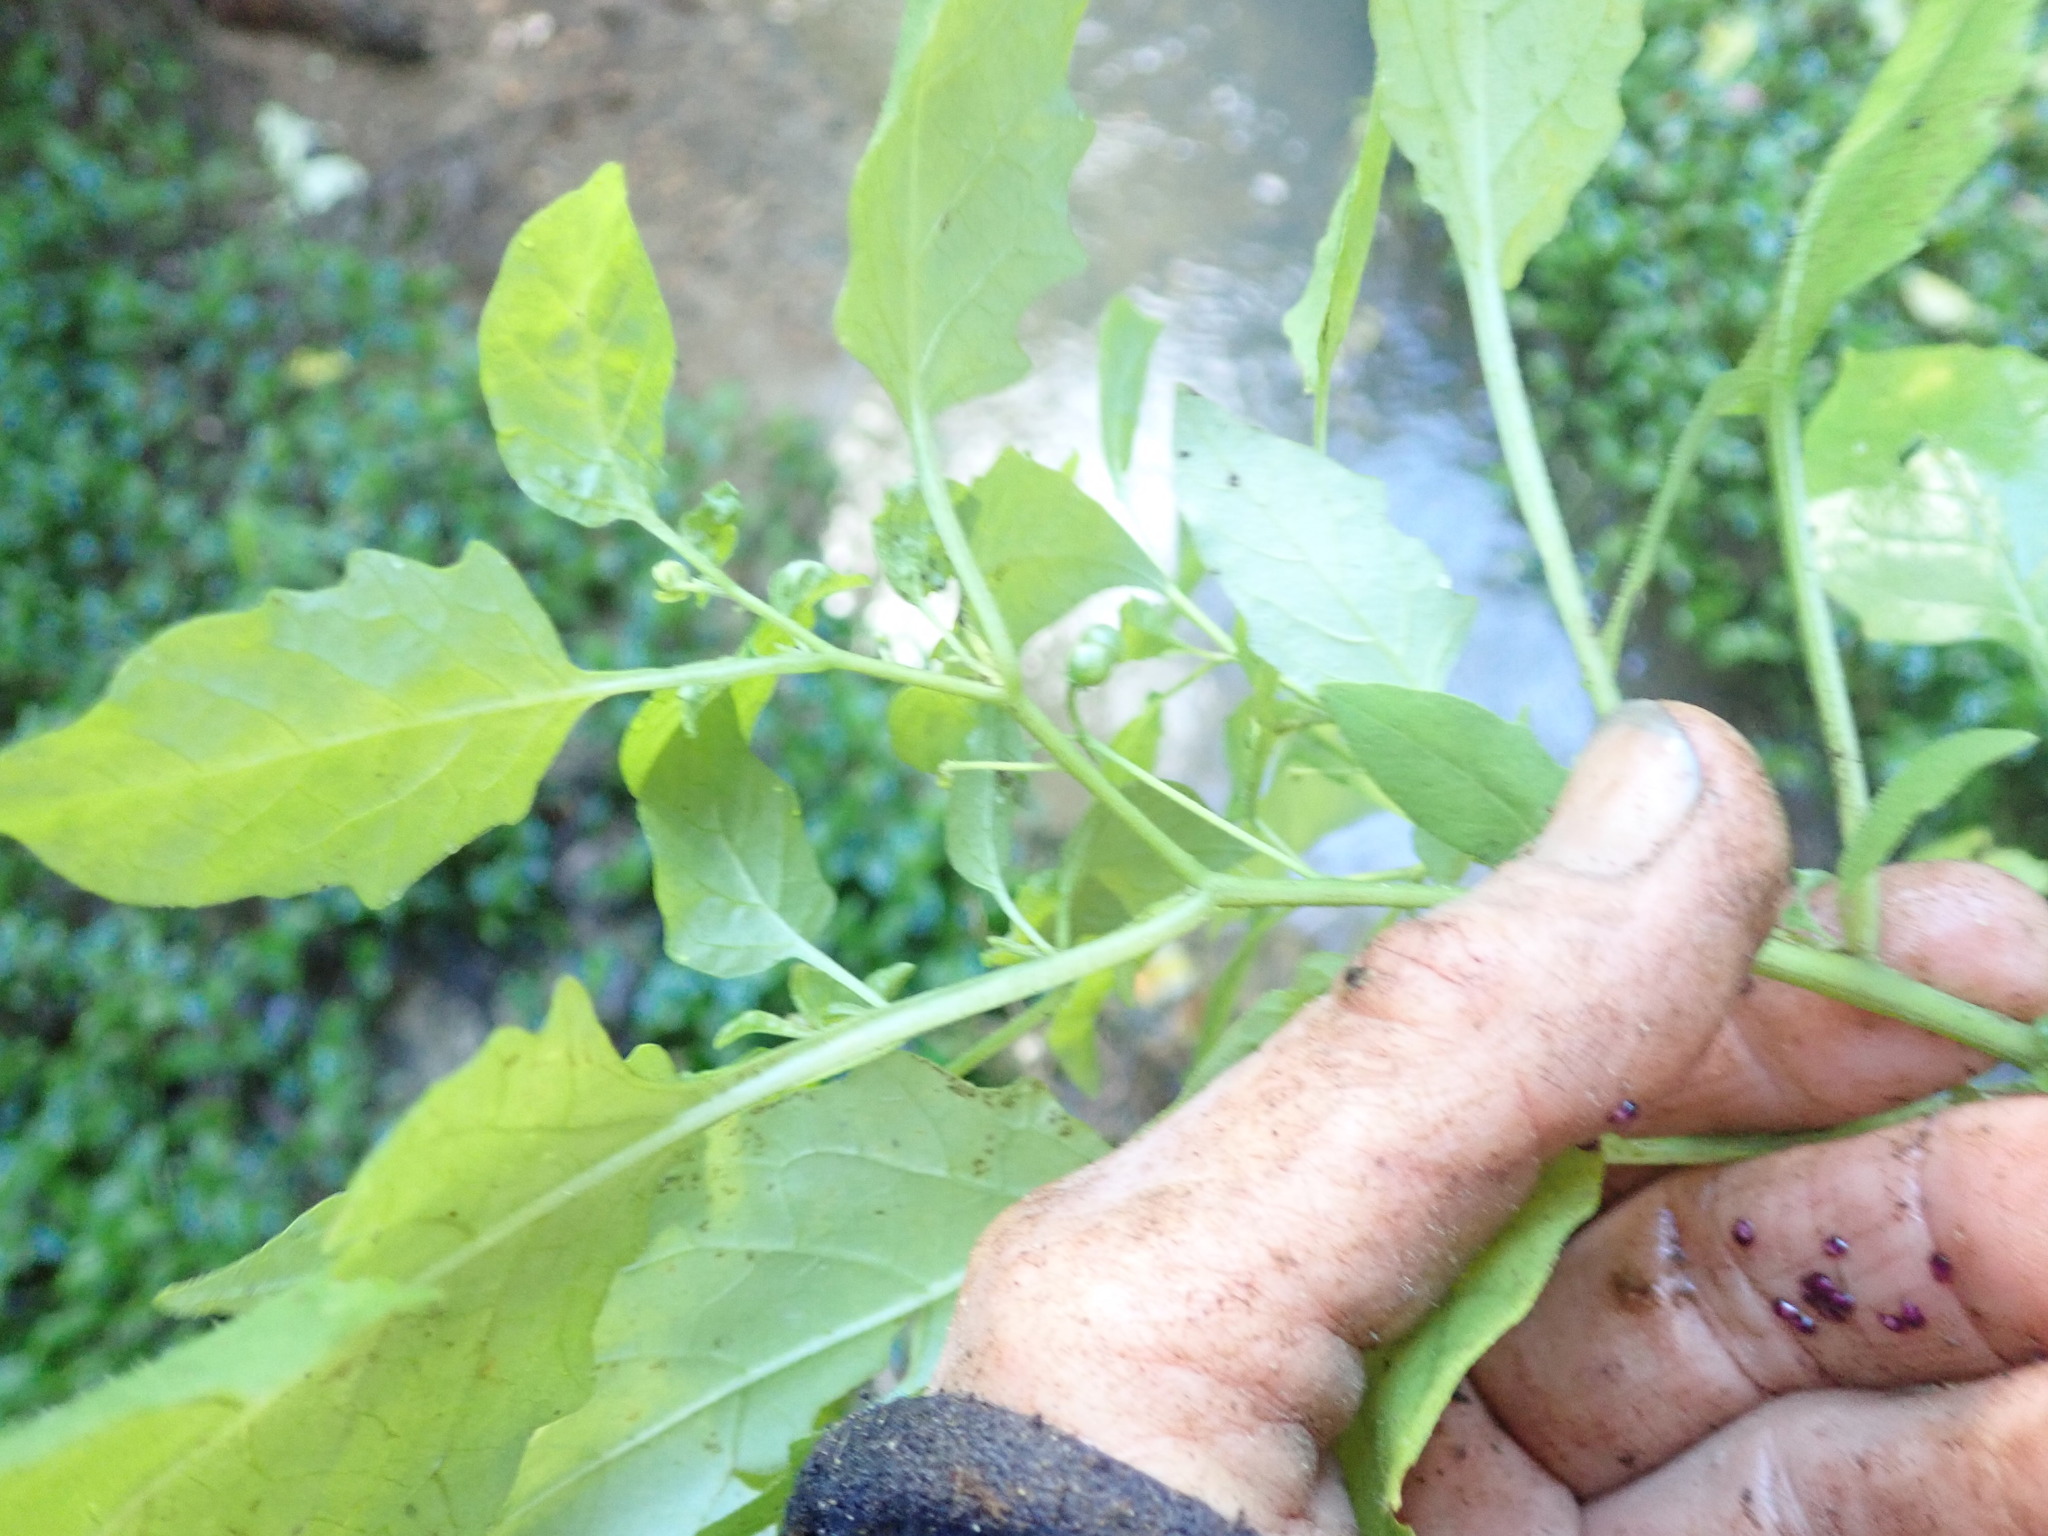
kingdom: Plantae
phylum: Tracheophyta
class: Magnoliopsida
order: Solanales
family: Solanaceae
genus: Solanum
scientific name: Solanum americanum
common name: American black nightshade
